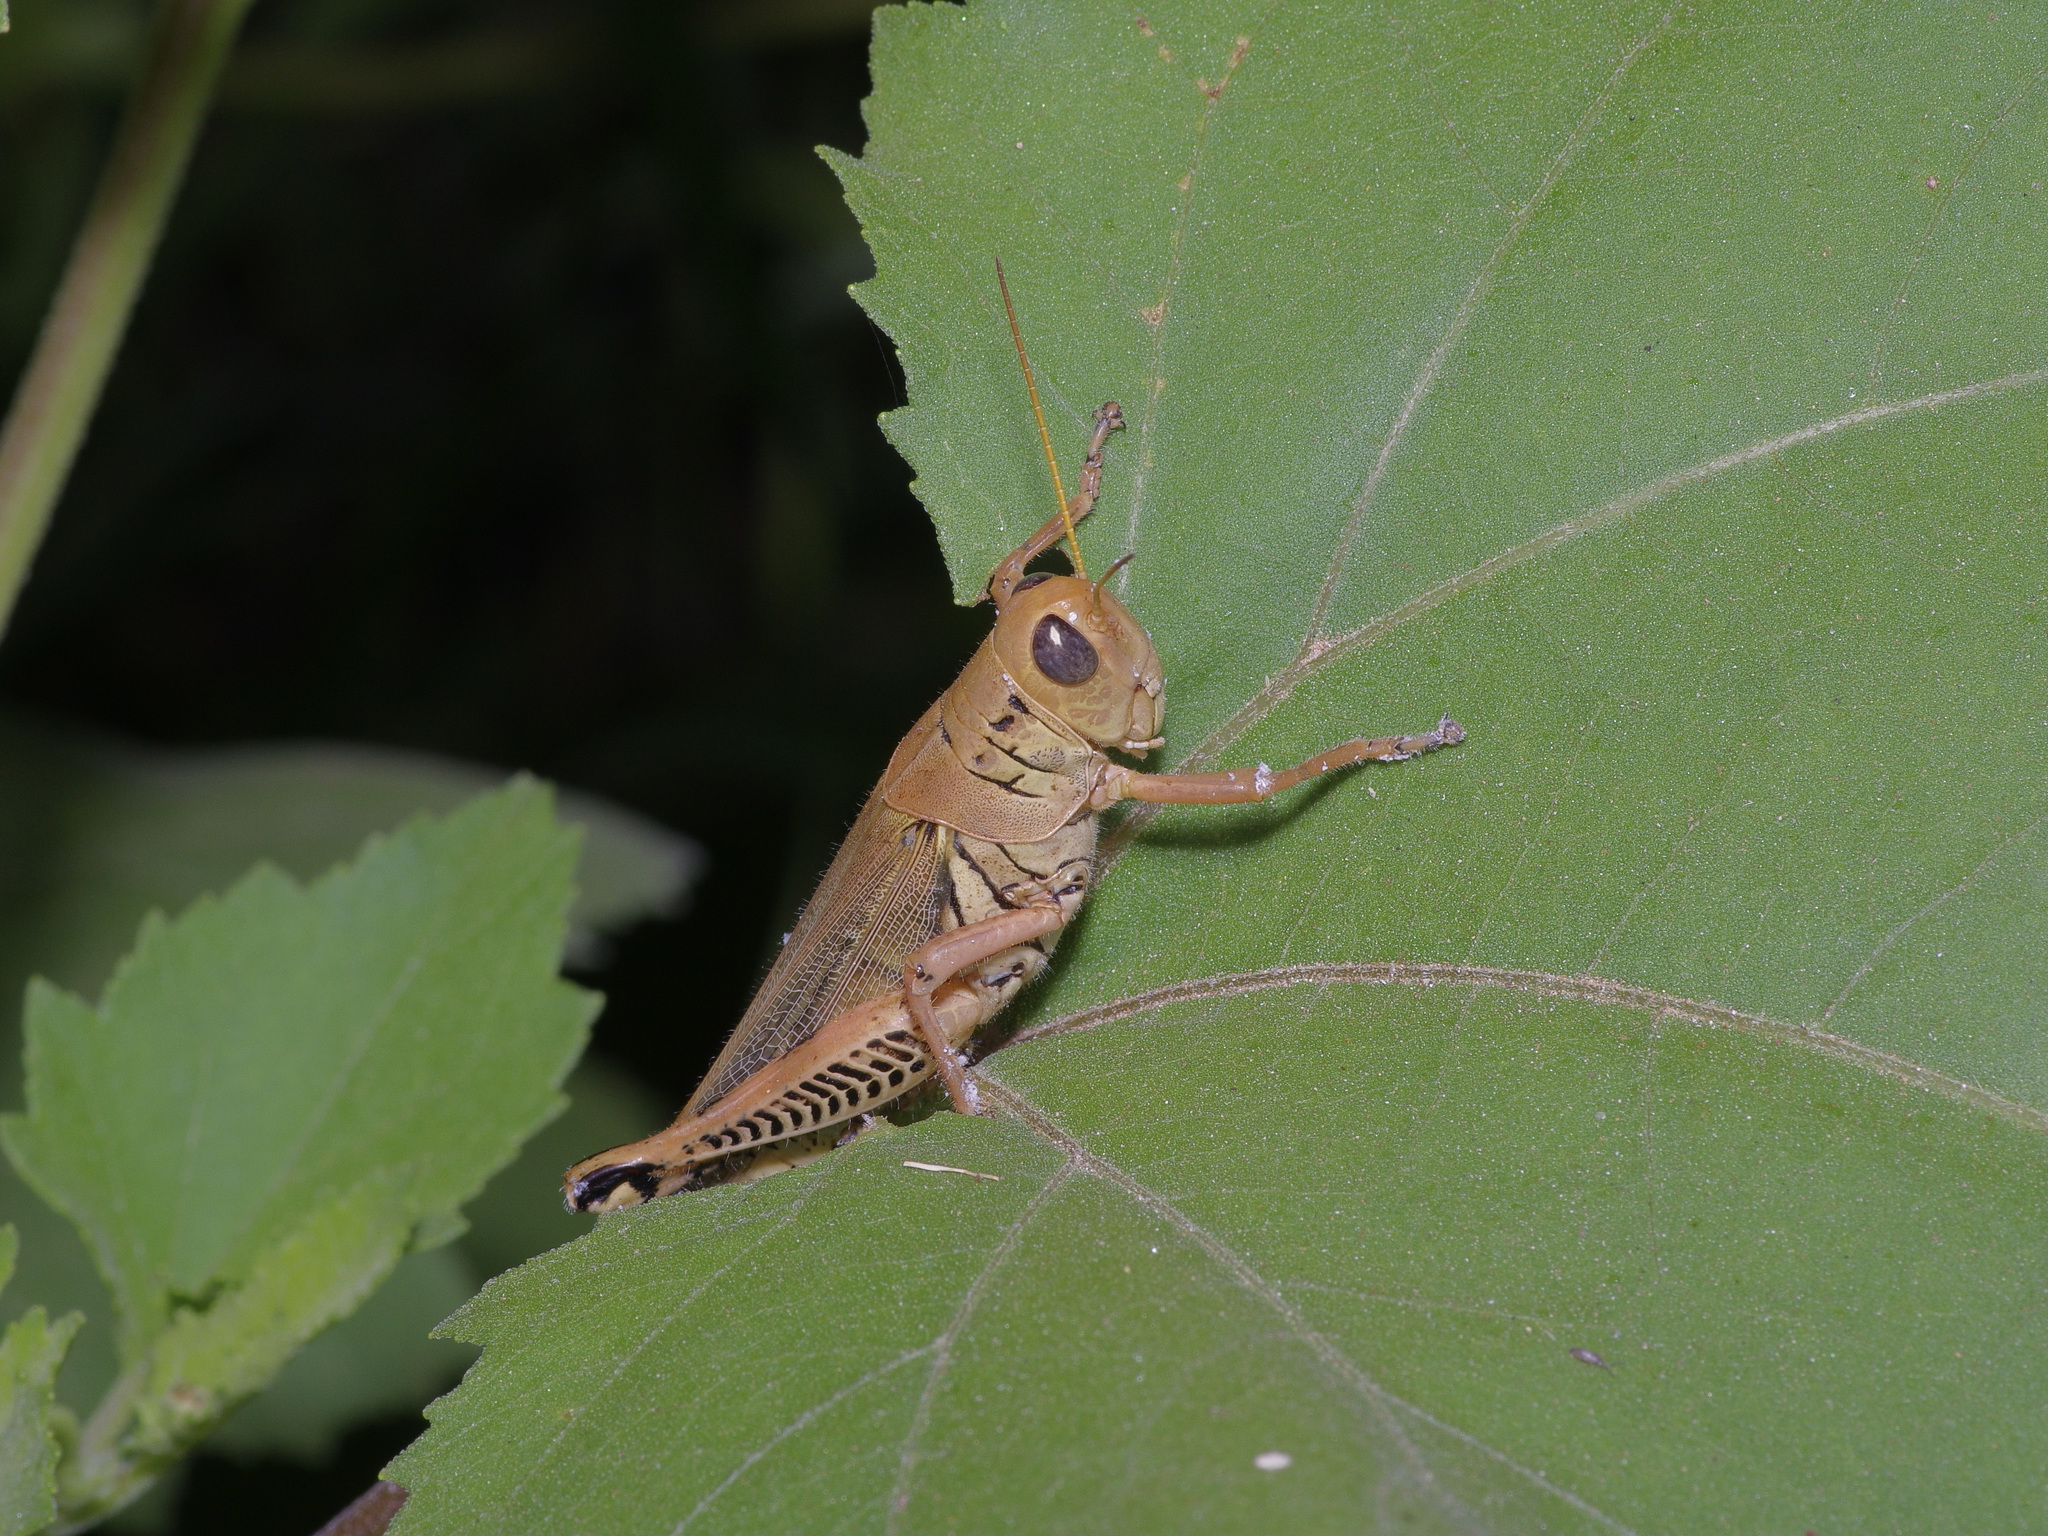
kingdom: Animalia
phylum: Arthropoda
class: Insecta
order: Orthoptera
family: Acrididae
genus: Melanoplus
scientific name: Melanoplus differentialis
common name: Differential grasshopper
